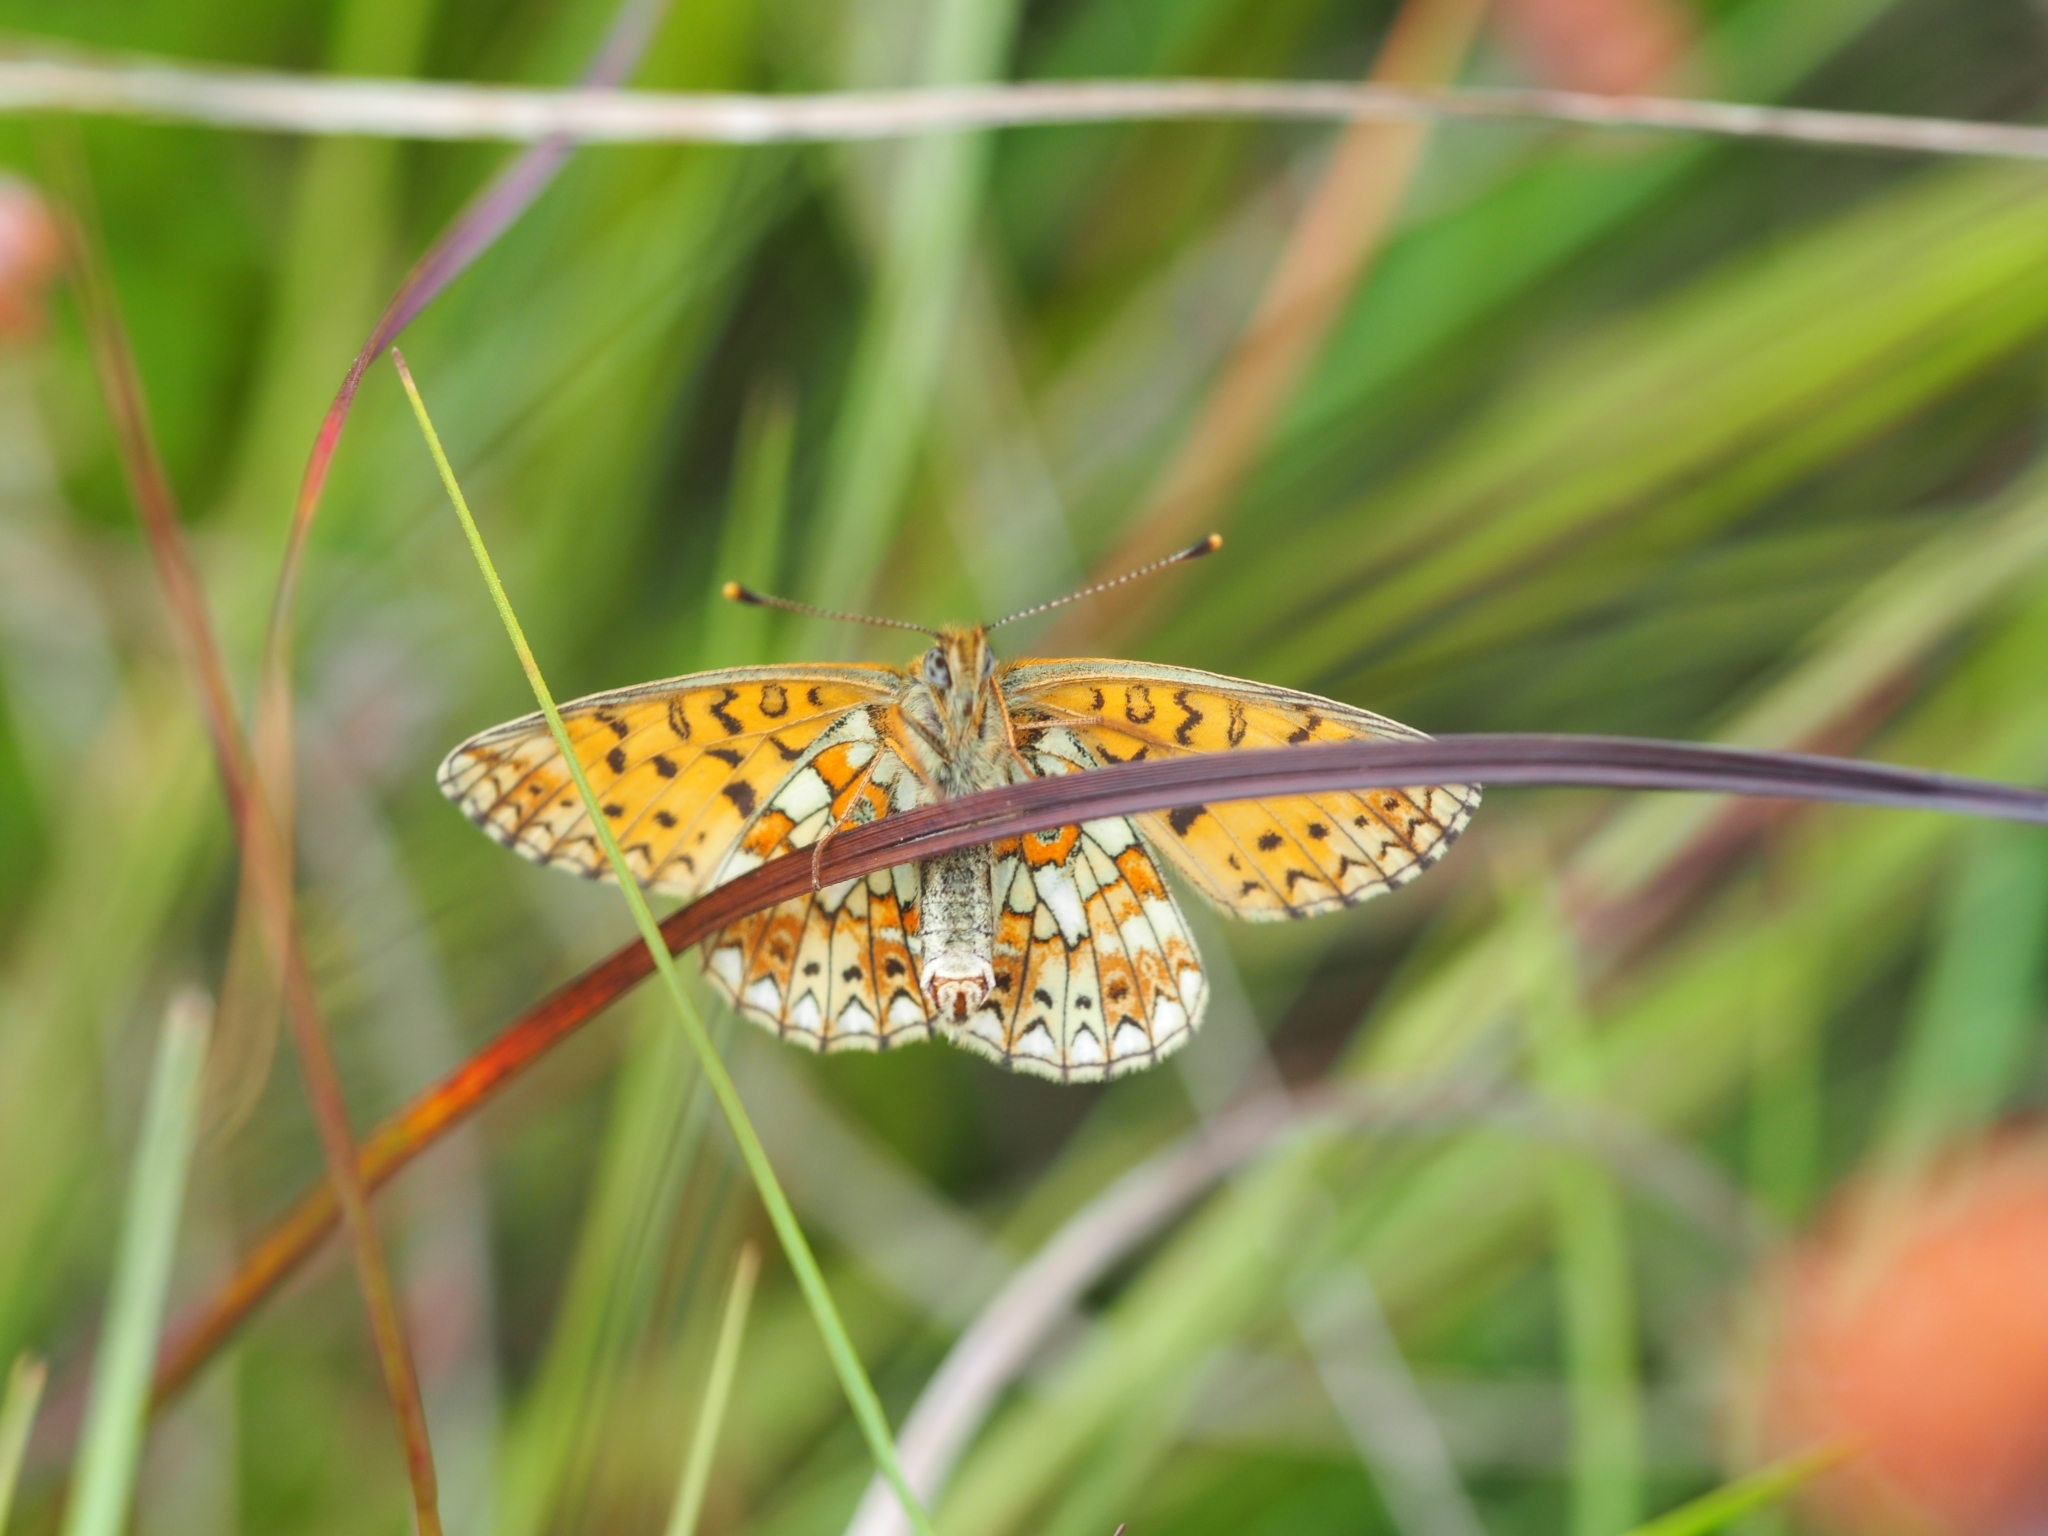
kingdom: Animalia
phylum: Arthropoda
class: Insecta
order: Lepidoptera
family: Nymphalidae
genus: Boloria
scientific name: Boloria selene
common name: Small pearl-bordered fritillary
